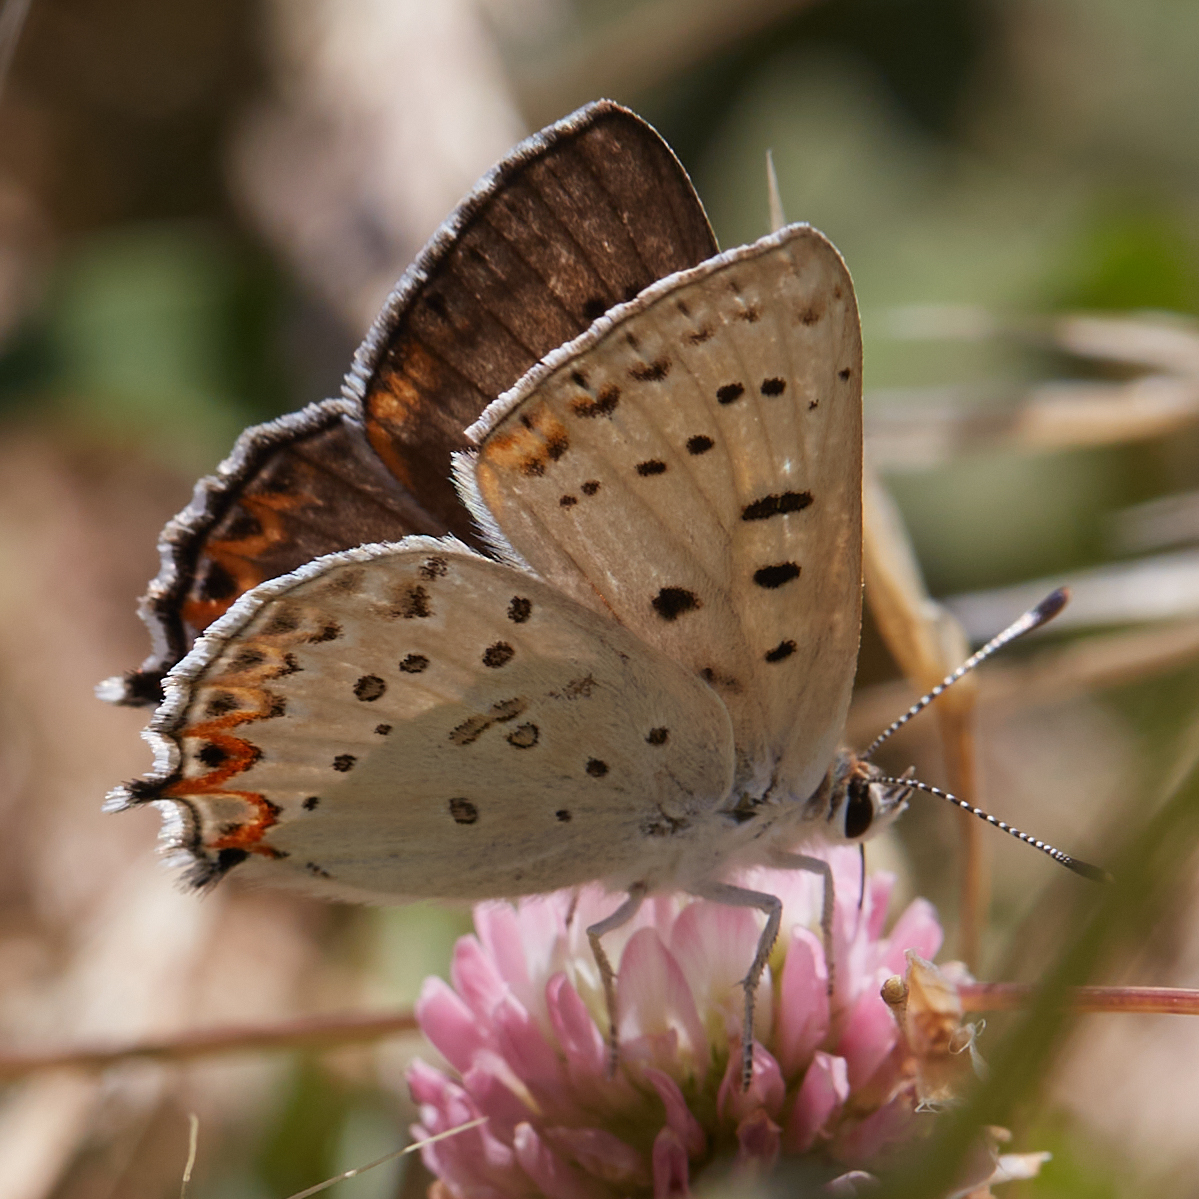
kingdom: Animalia
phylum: Arthropoda
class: Insecta
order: Lepidoptera
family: Lycaenidae
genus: Tharsalea
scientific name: Tharsalea xanthoides
